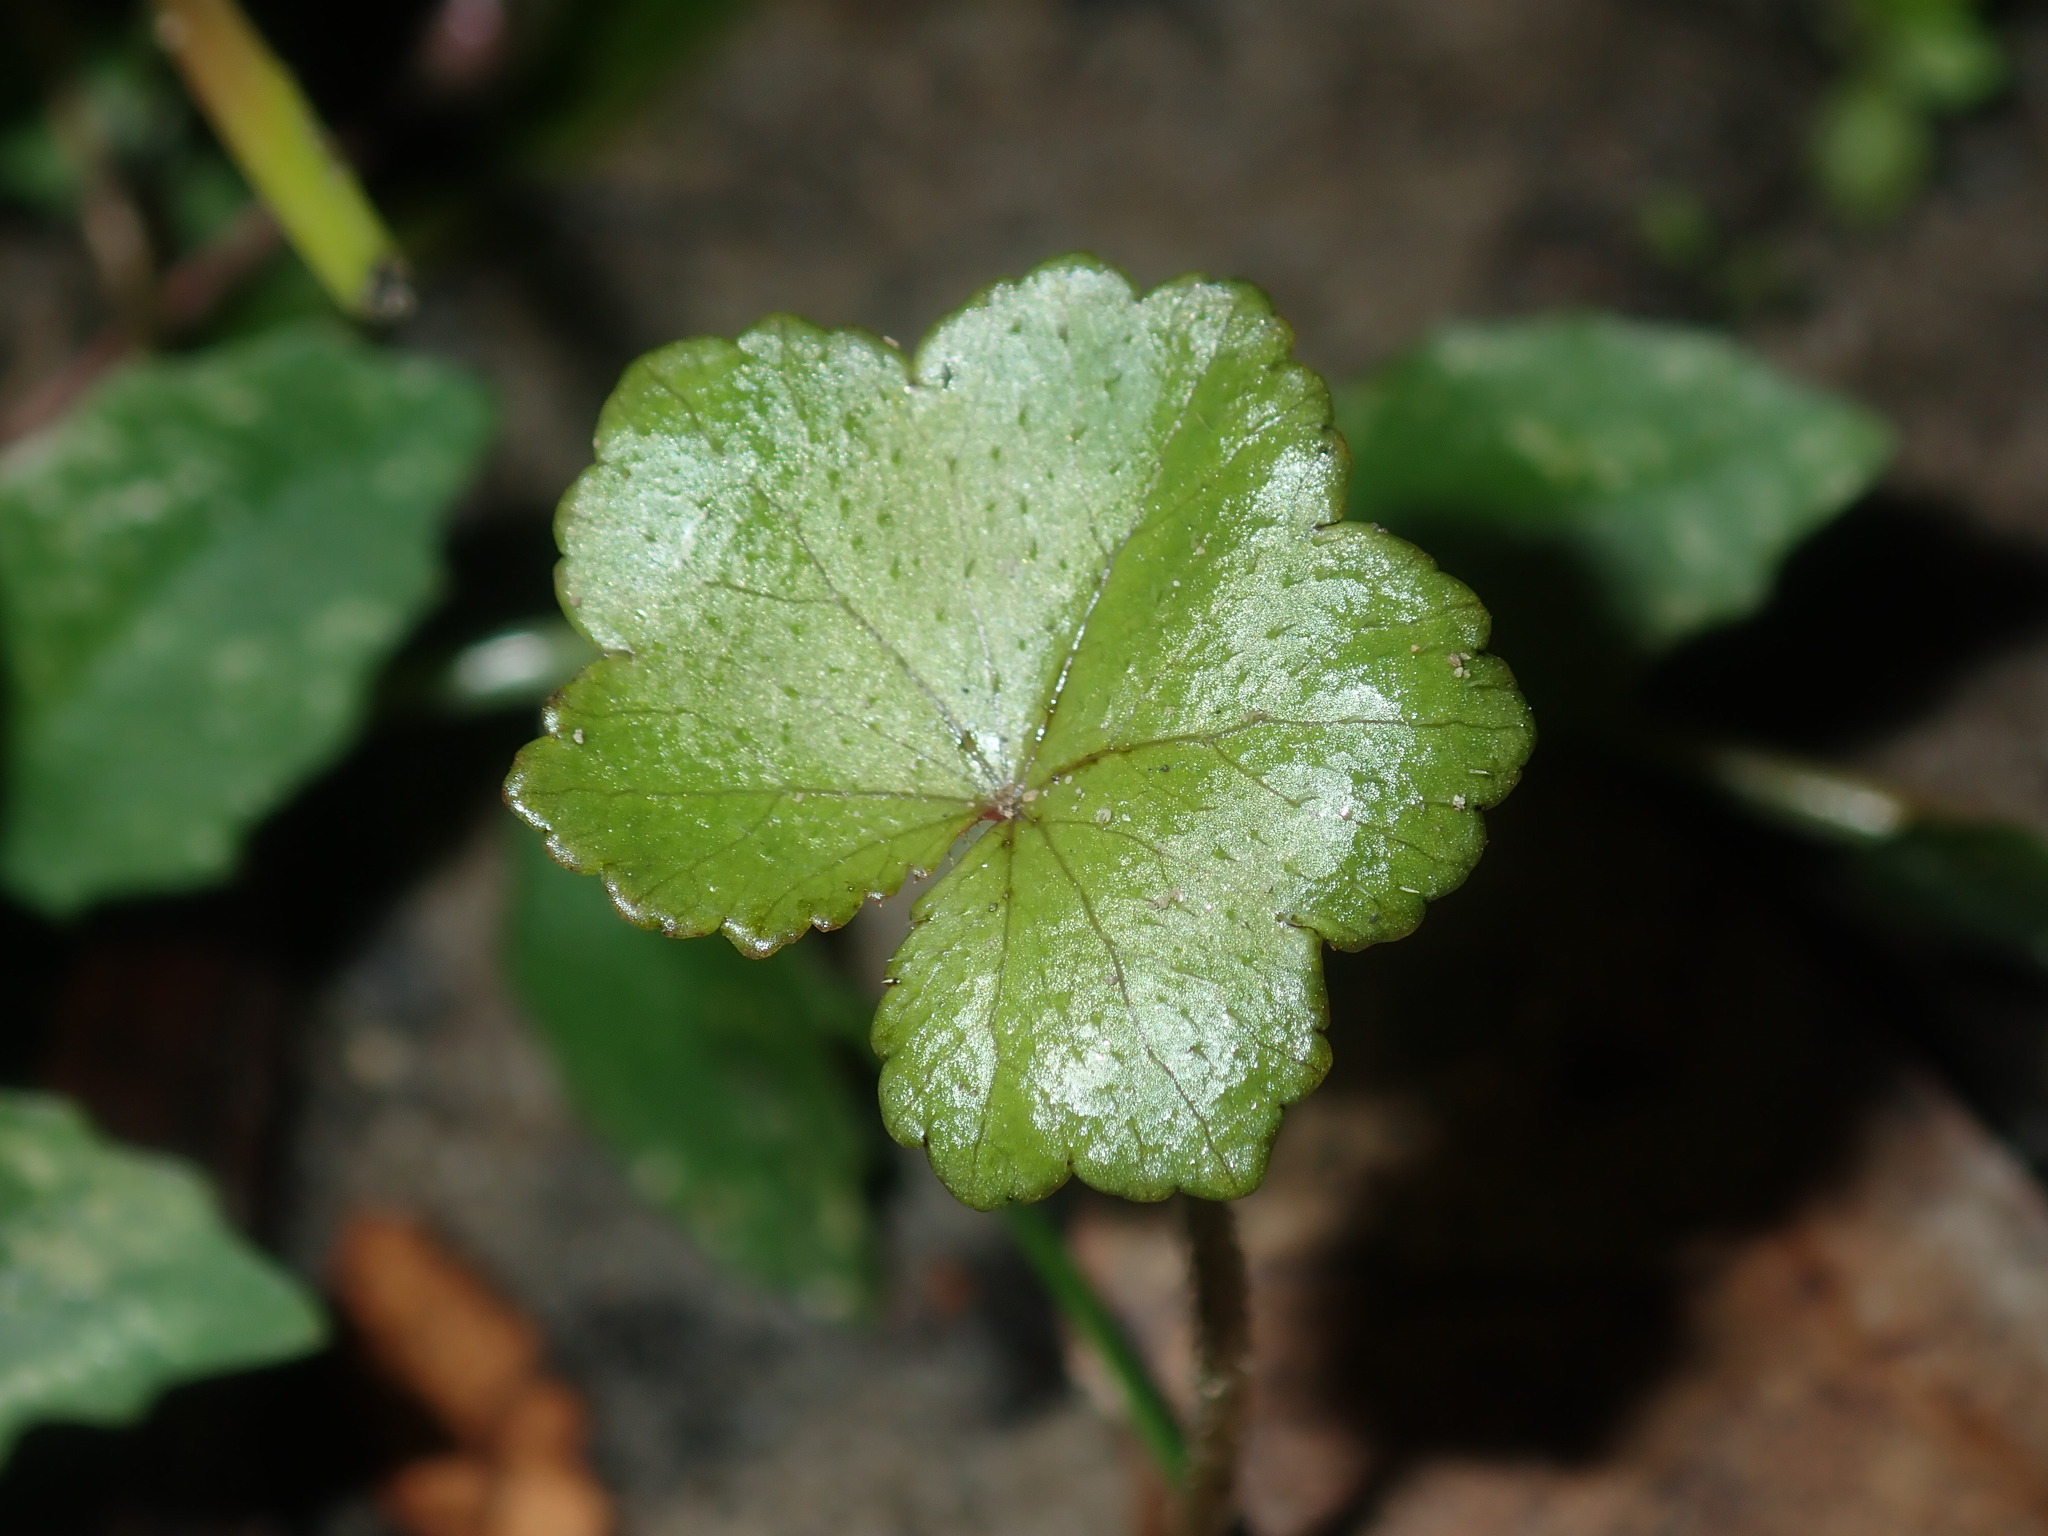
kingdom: Plantae
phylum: Tracheophyta
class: Magnoliopsida
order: Apiales
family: Araliaceae
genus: Hydrocotyle
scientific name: Hydrocotyle hirta
